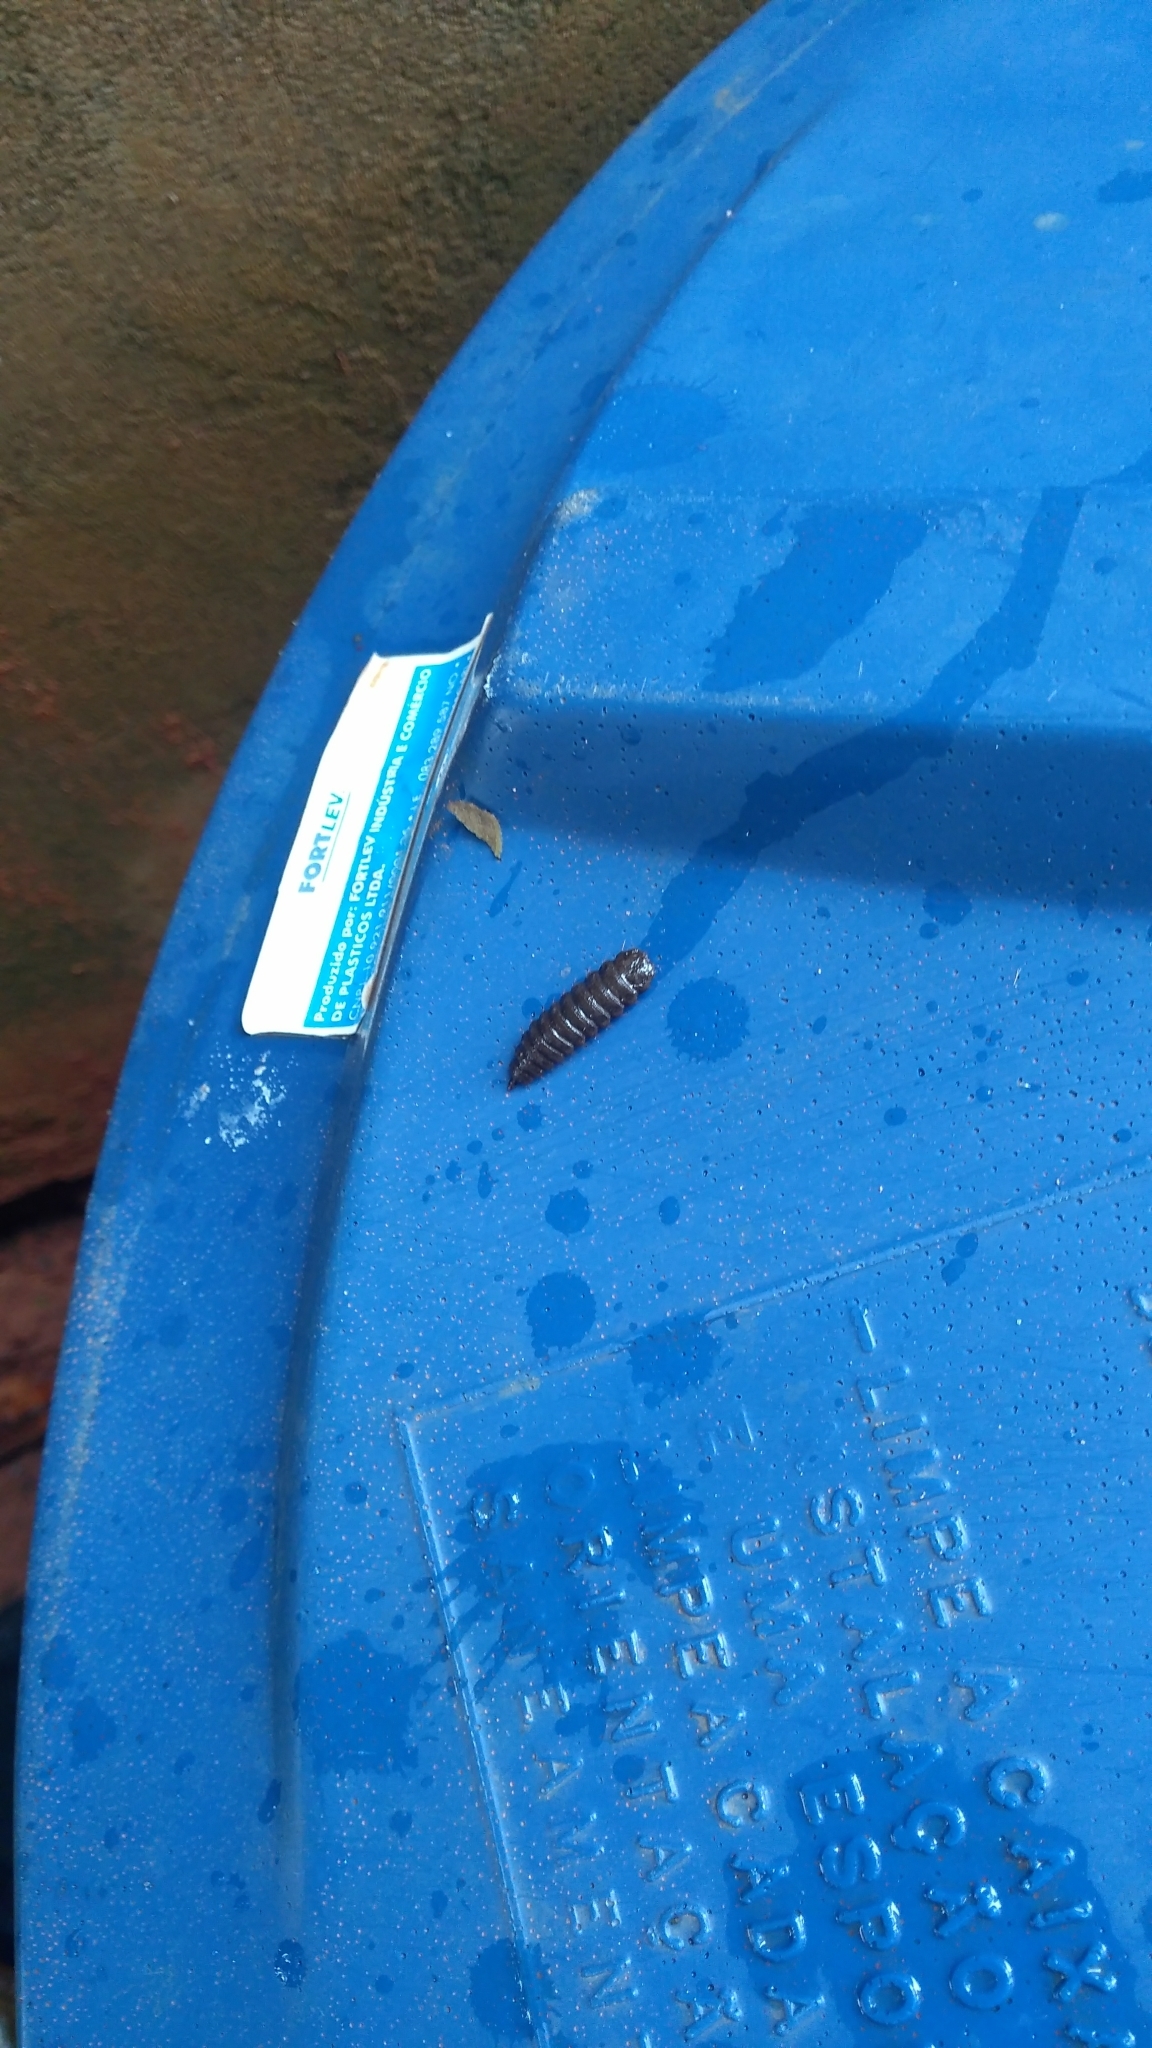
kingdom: Animalia
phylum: Arthropoda
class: Insecta
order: Diptera
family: Stratiomyidae
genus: Hermetia
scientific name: Hermetia illucens
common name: Black soldier fly
